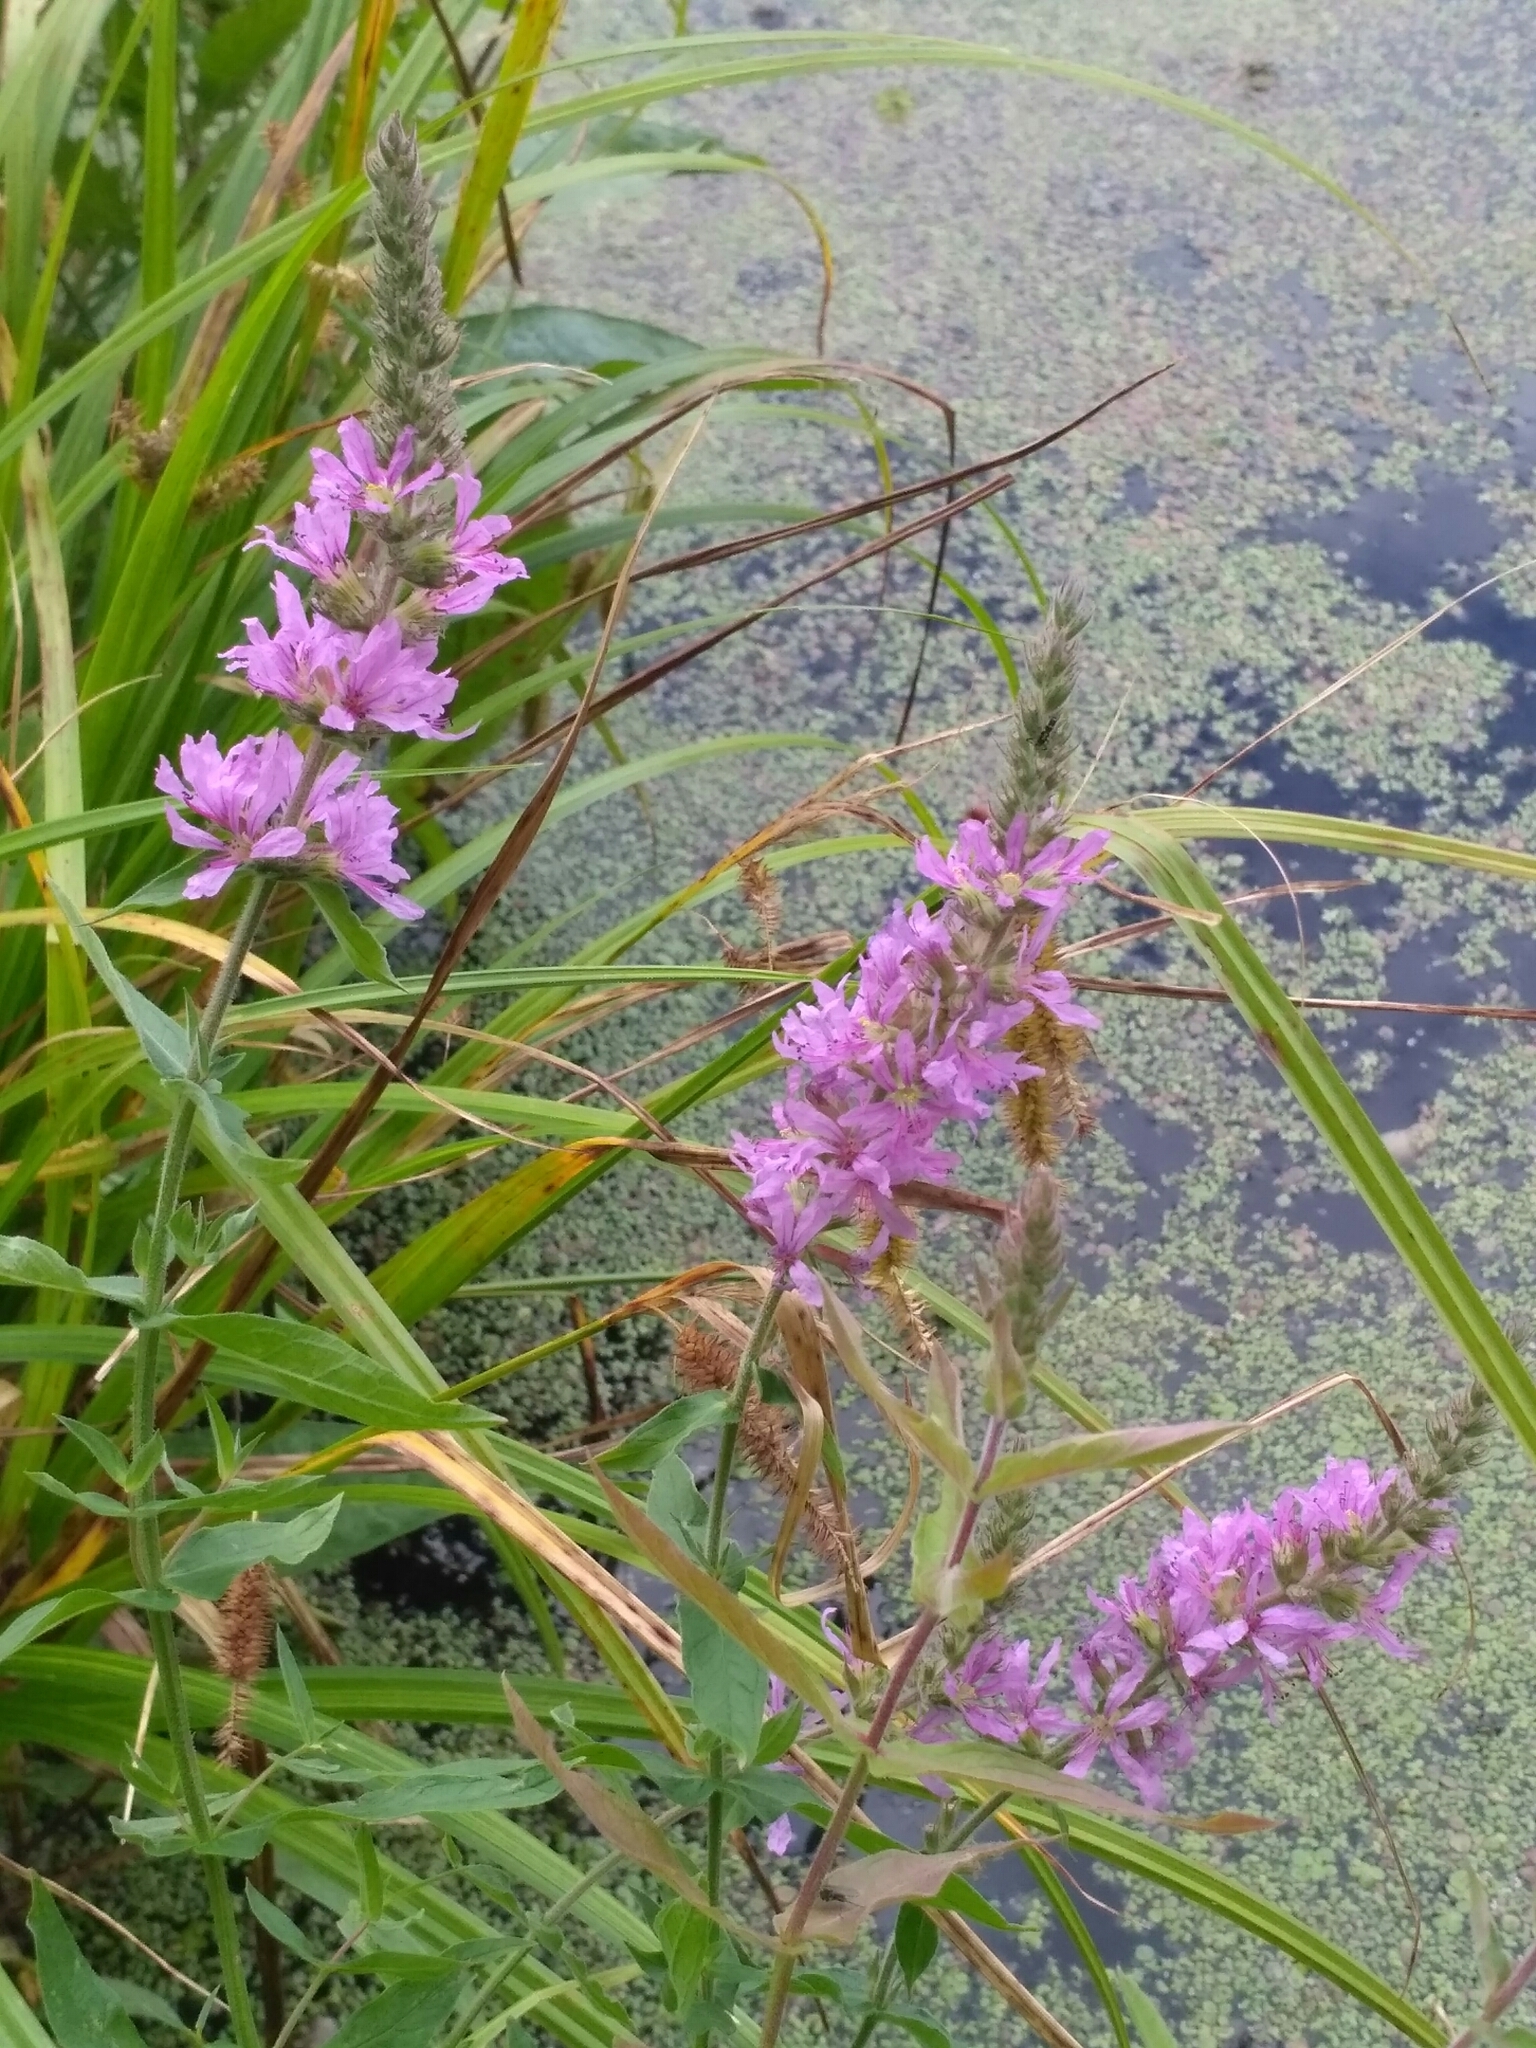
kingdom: Plantae
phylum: Tracheophyta
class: Magnoliopsida
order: Myrtales
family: Lythraceae
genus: Lythrum
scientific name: Lythrum salicaria
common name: Purple loosestrife
